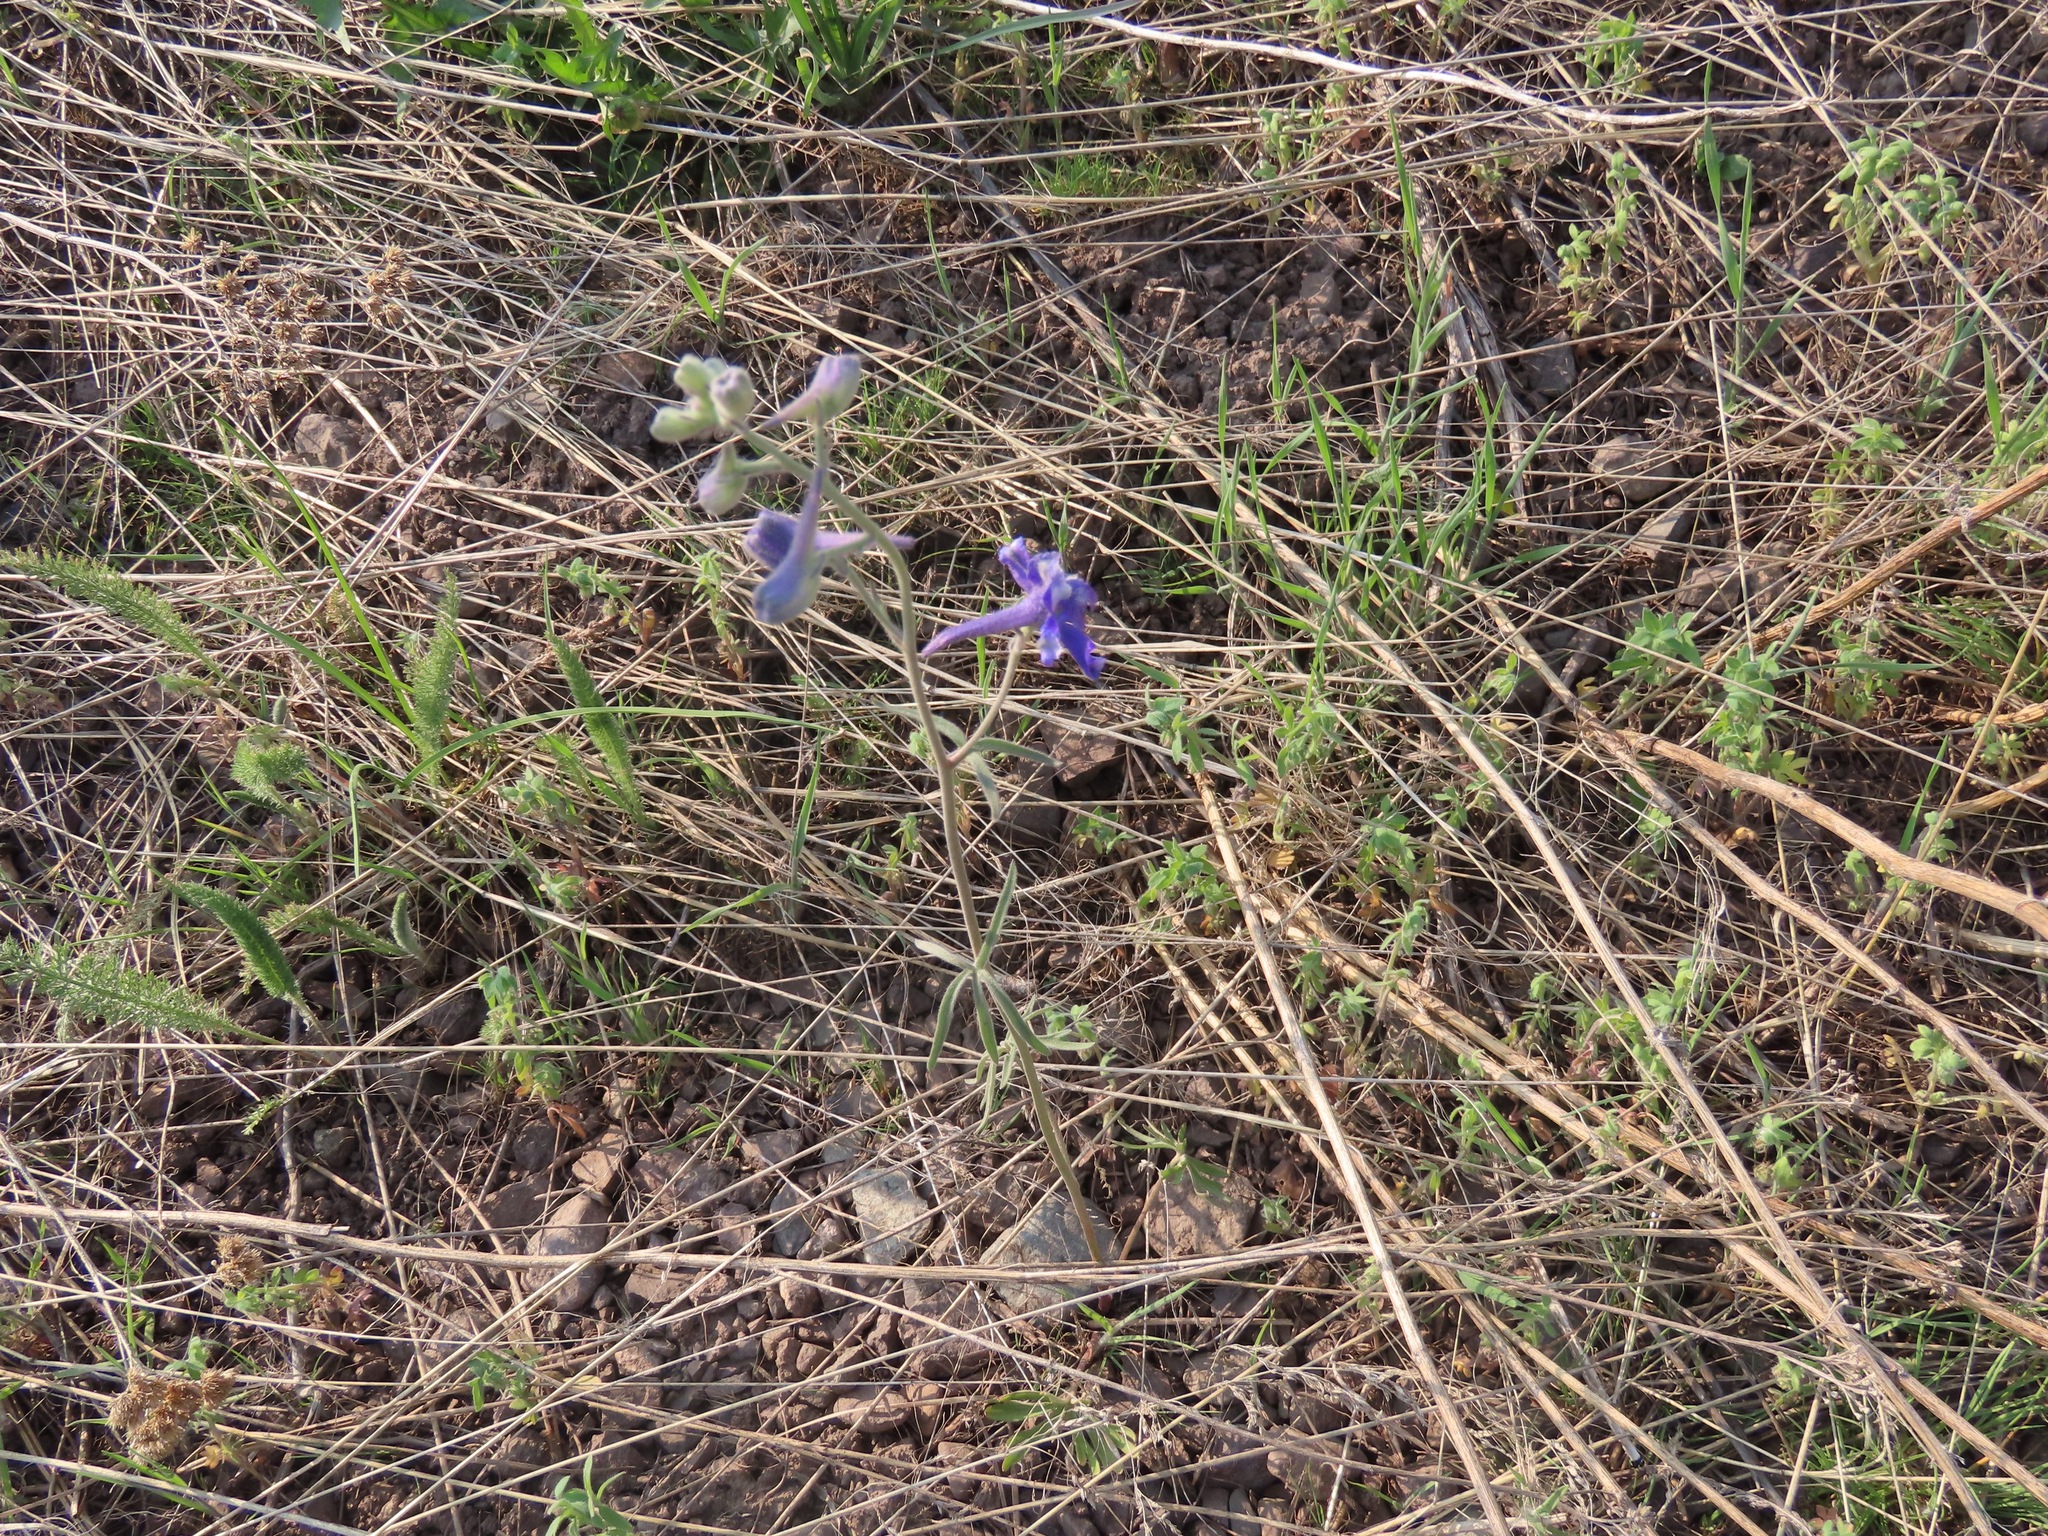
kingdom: Plantae
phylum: Tracheophyta
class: Magnoliopsida
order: Ranunculales
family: Ranunculaceae
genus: Delphinium
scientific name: Delphinium nuttallianum
